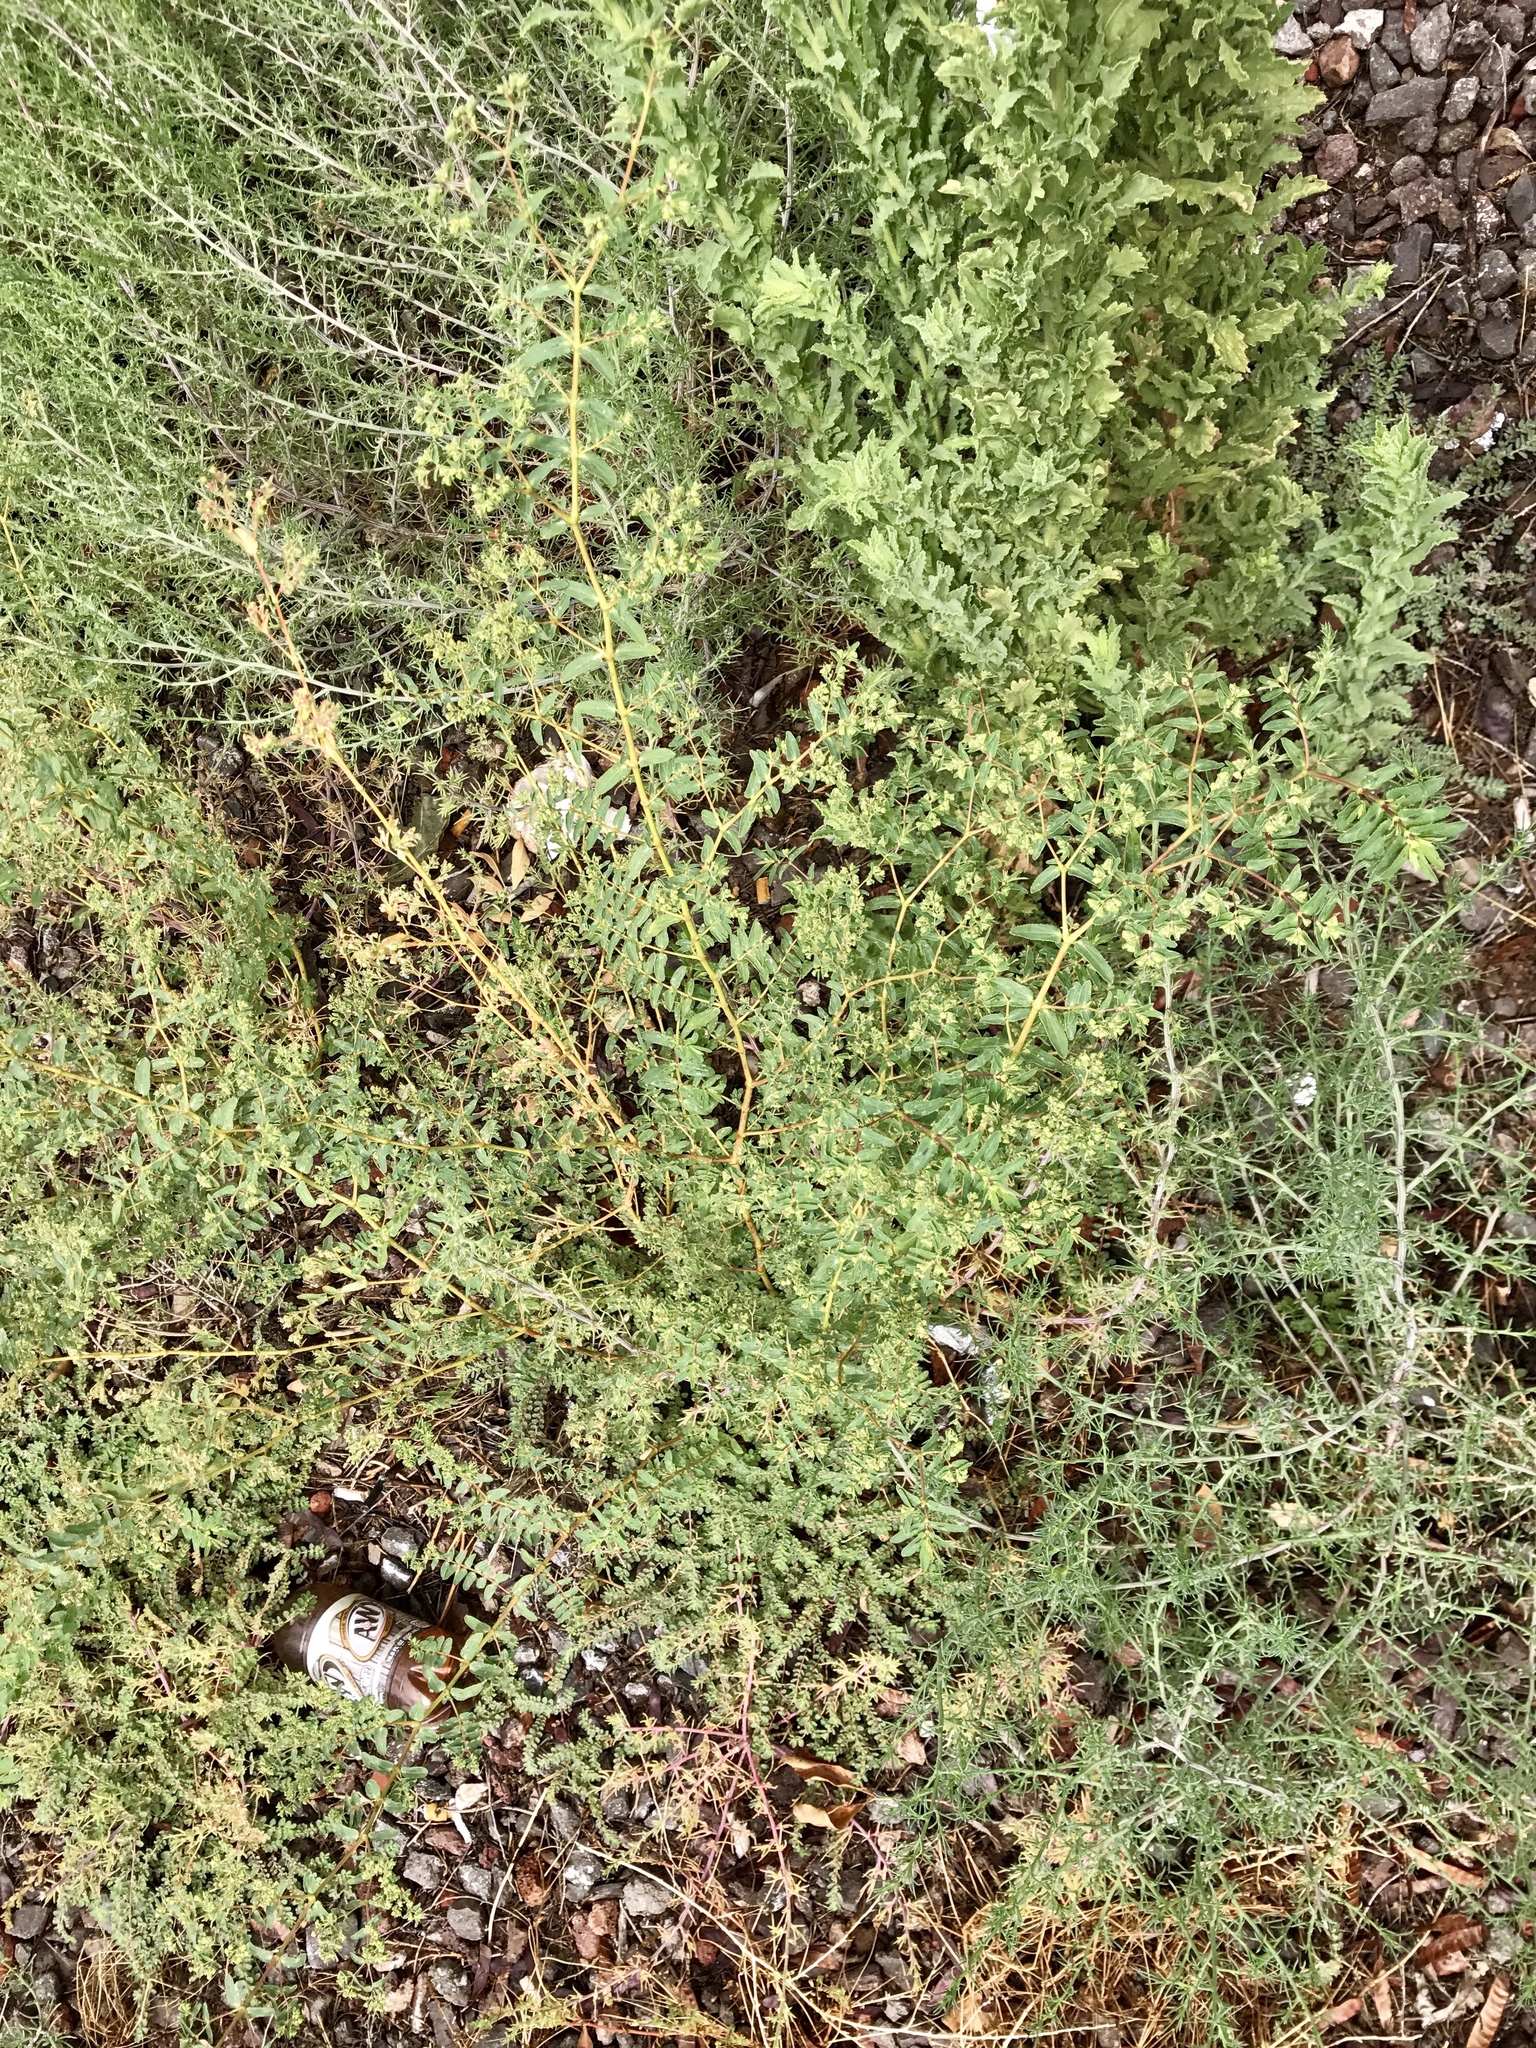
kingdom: Plantae
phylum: Tracheophyta
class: Magnoliopsida
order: Malpighiales
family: Euphorbiaceae
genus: Euphorbia
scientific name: Euphorbia hyssopifolia
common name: Hyssopleaf sandmat
